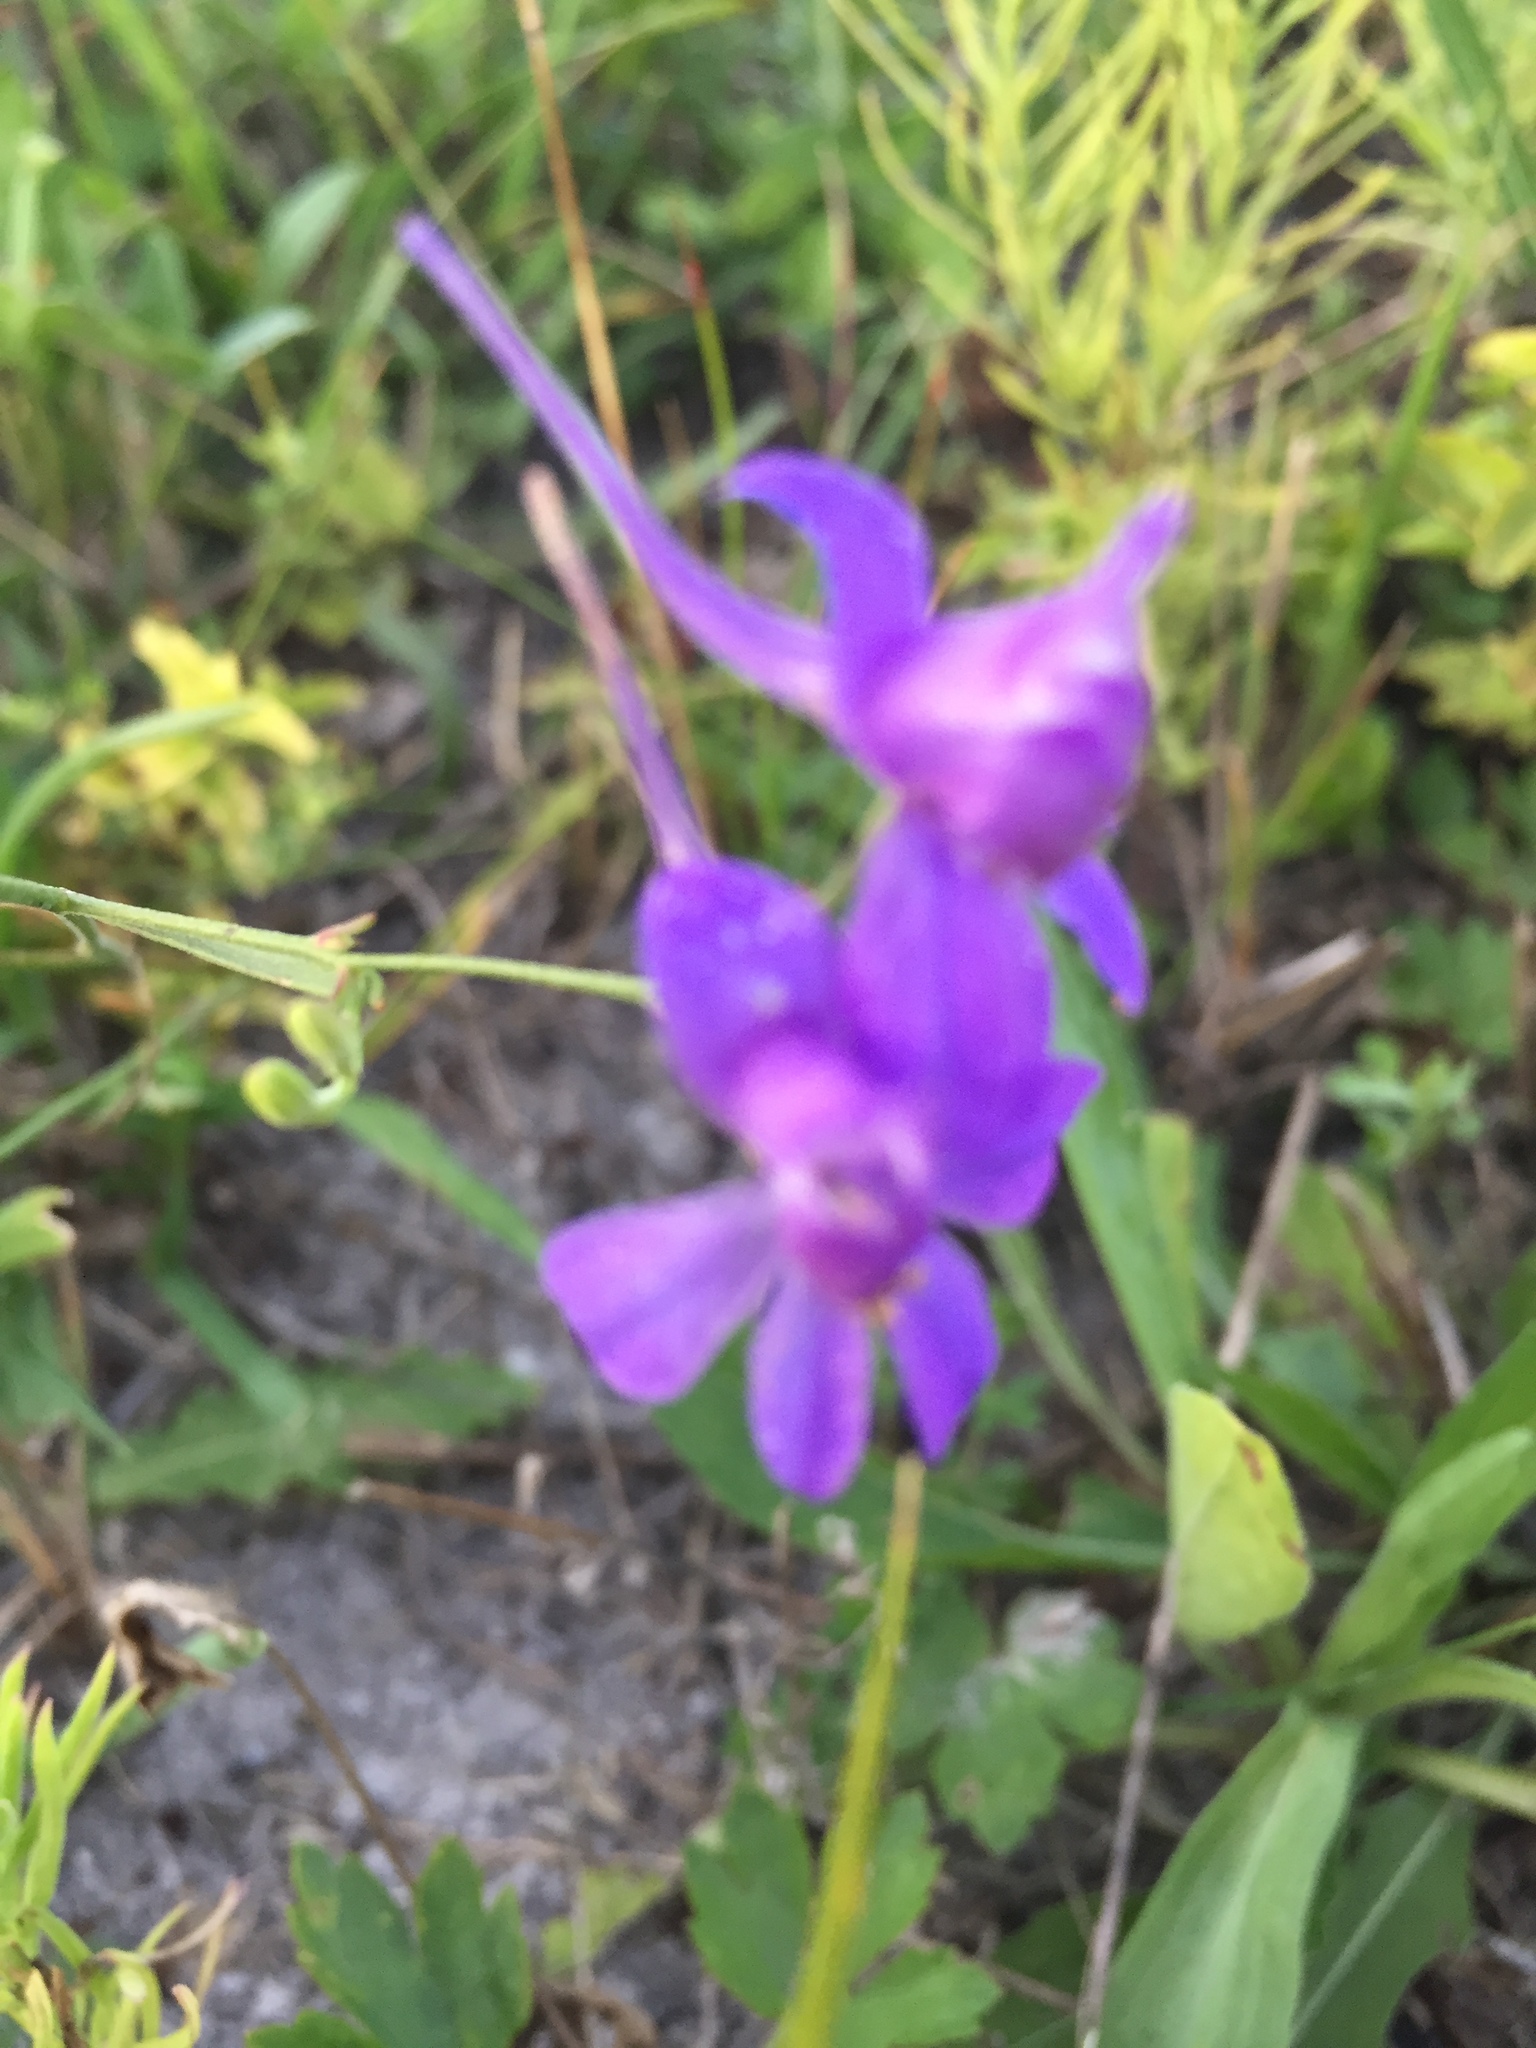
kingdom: Plantae
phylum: Tracheophyta
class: Magnoliopsida
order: Ranunculales
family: Ranunculaceae
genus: Delphinium
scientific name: Delphinium consolida
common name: Branching larkspur
